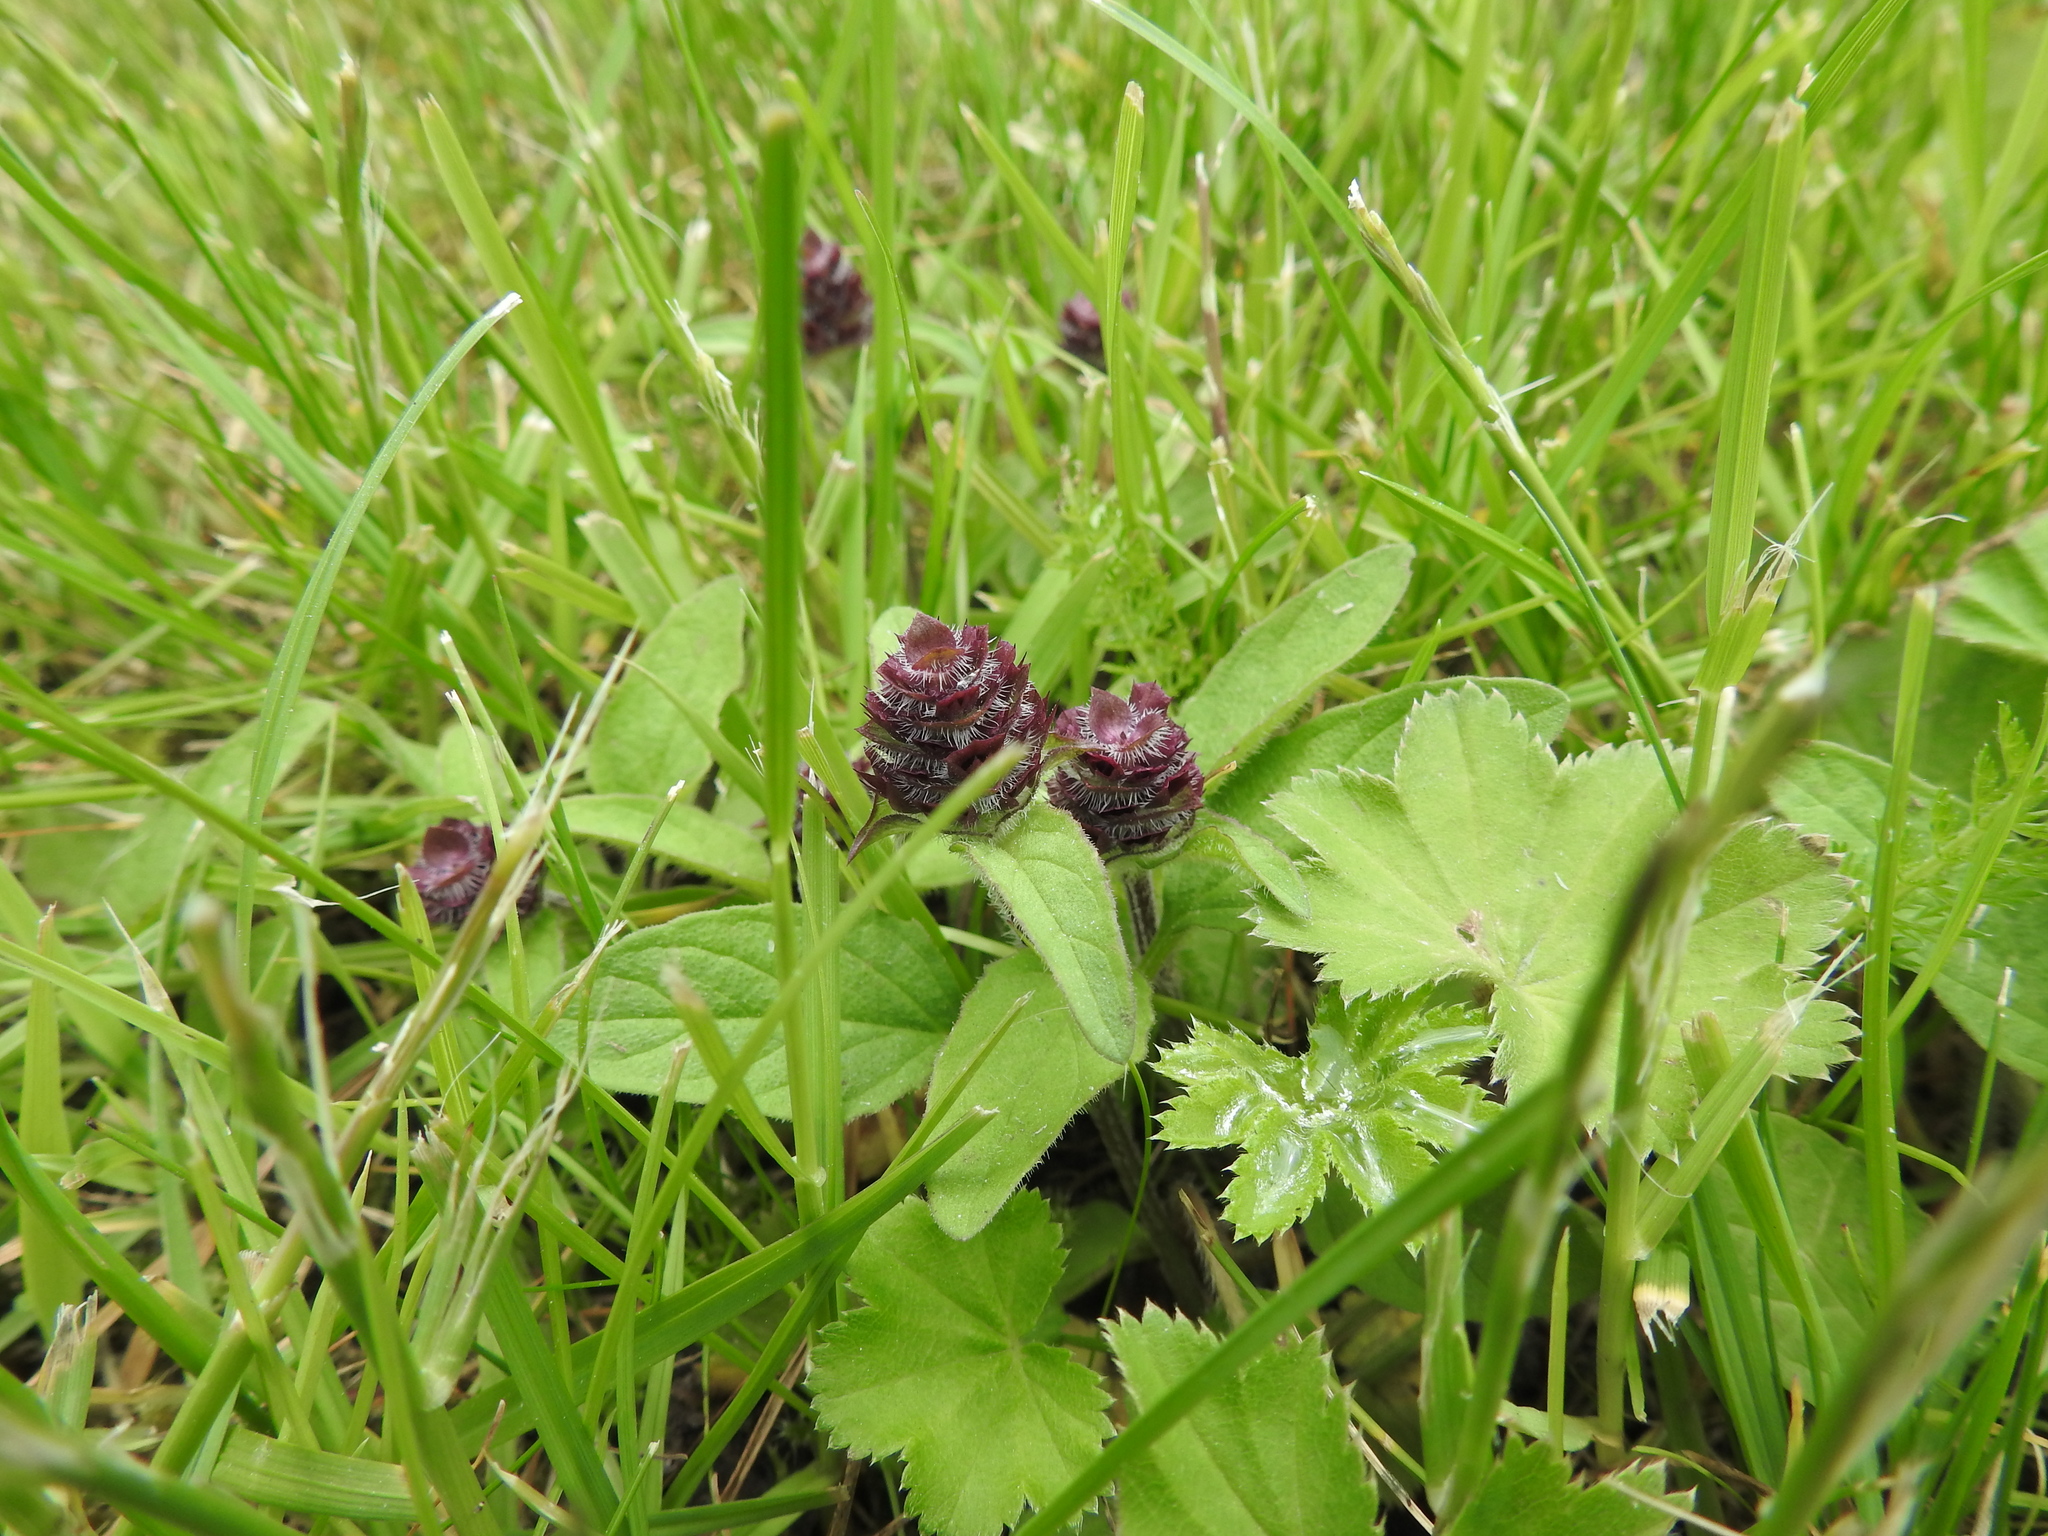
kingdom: Plantae
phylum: Tracheophyta
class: Magnoliopsida
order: Lamiales
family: Lamiaceae
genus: Prunella
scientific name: Prunella vulgaris
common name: Heal-all
